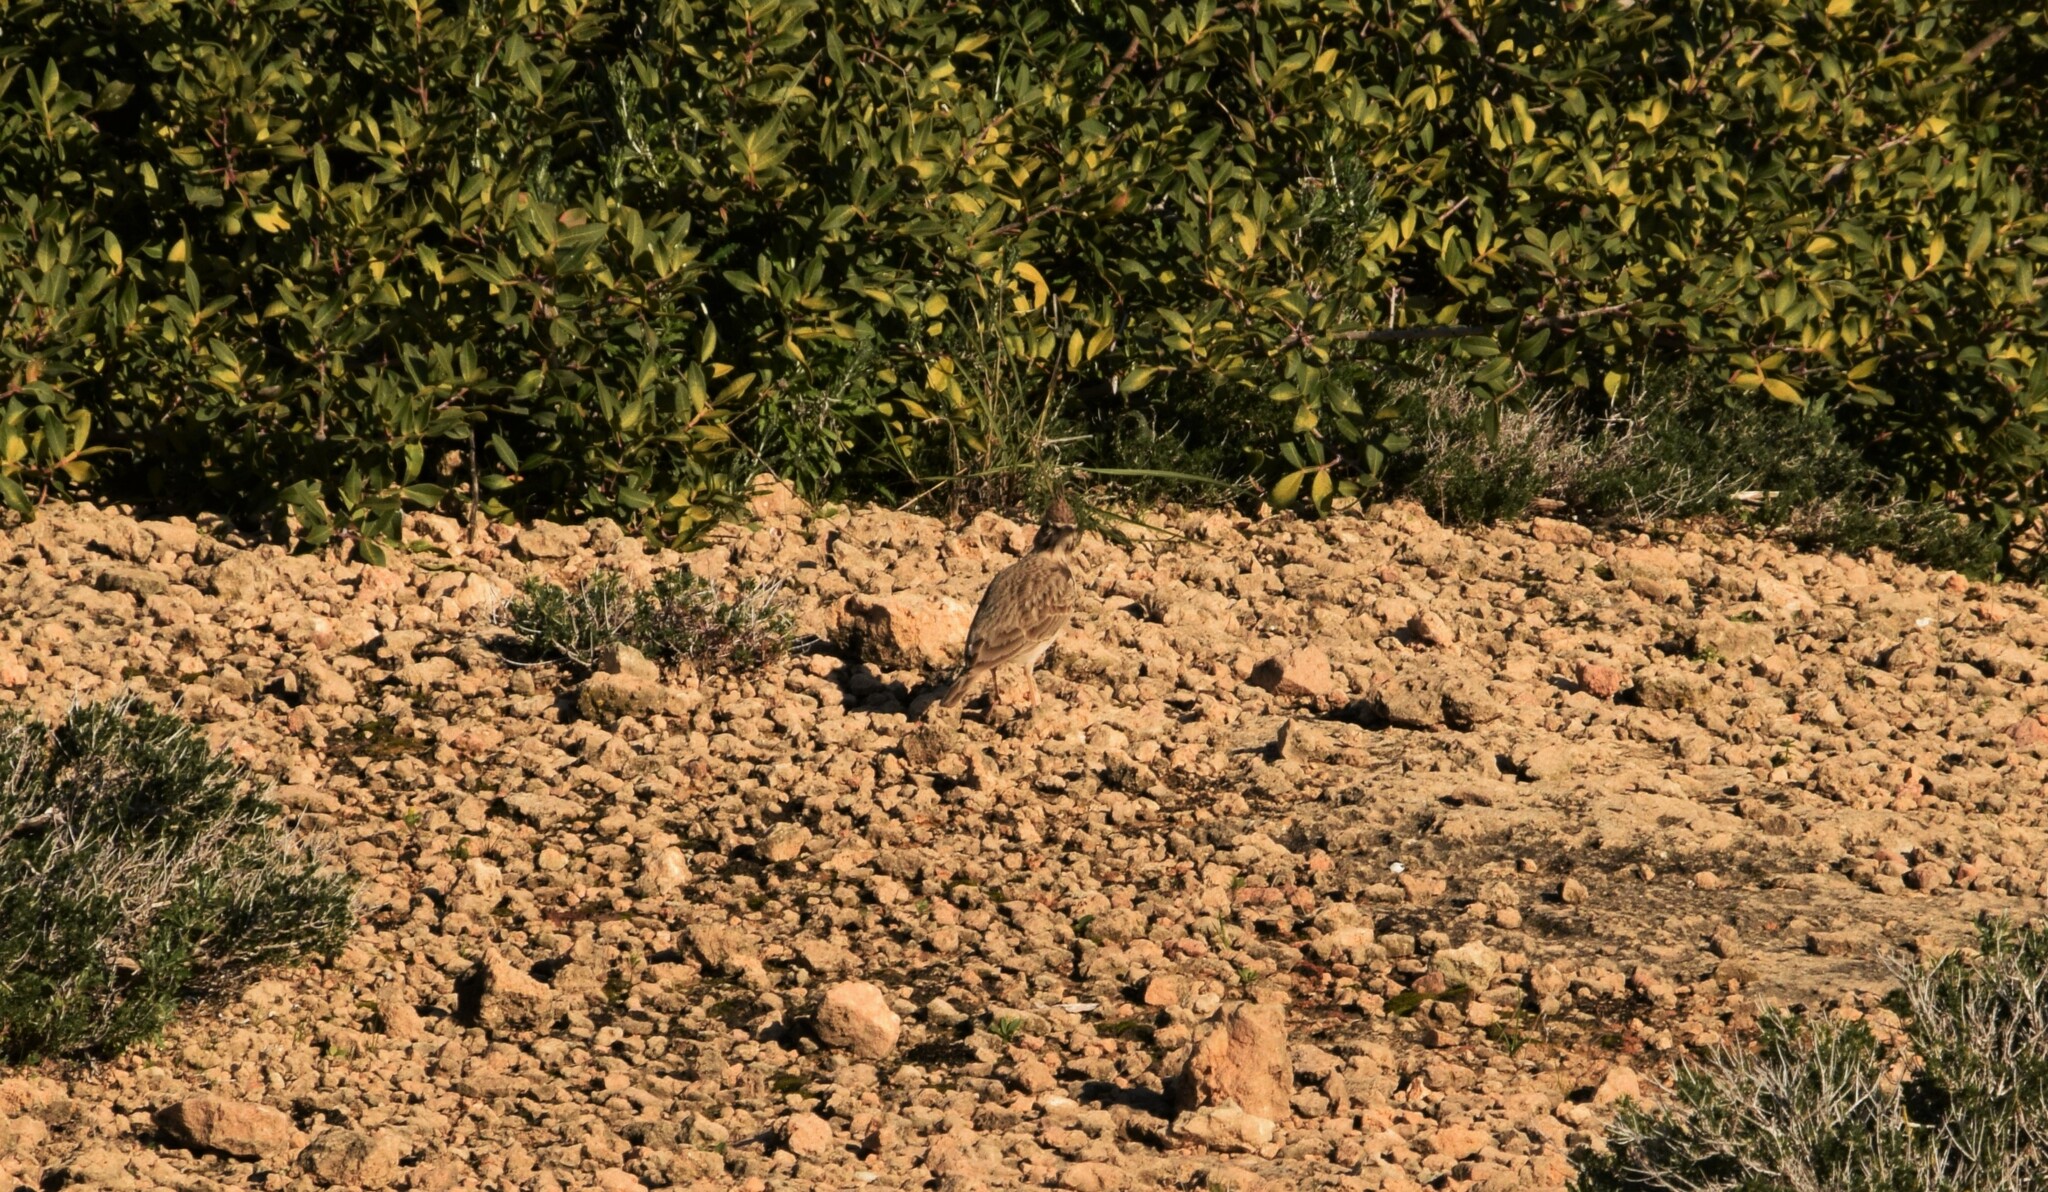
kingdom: Animalia
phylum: Chordata
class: Aves
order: Passeriformes
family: Alaudidae
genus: Galerida
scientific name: Galerida cristata
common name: Crested lark
